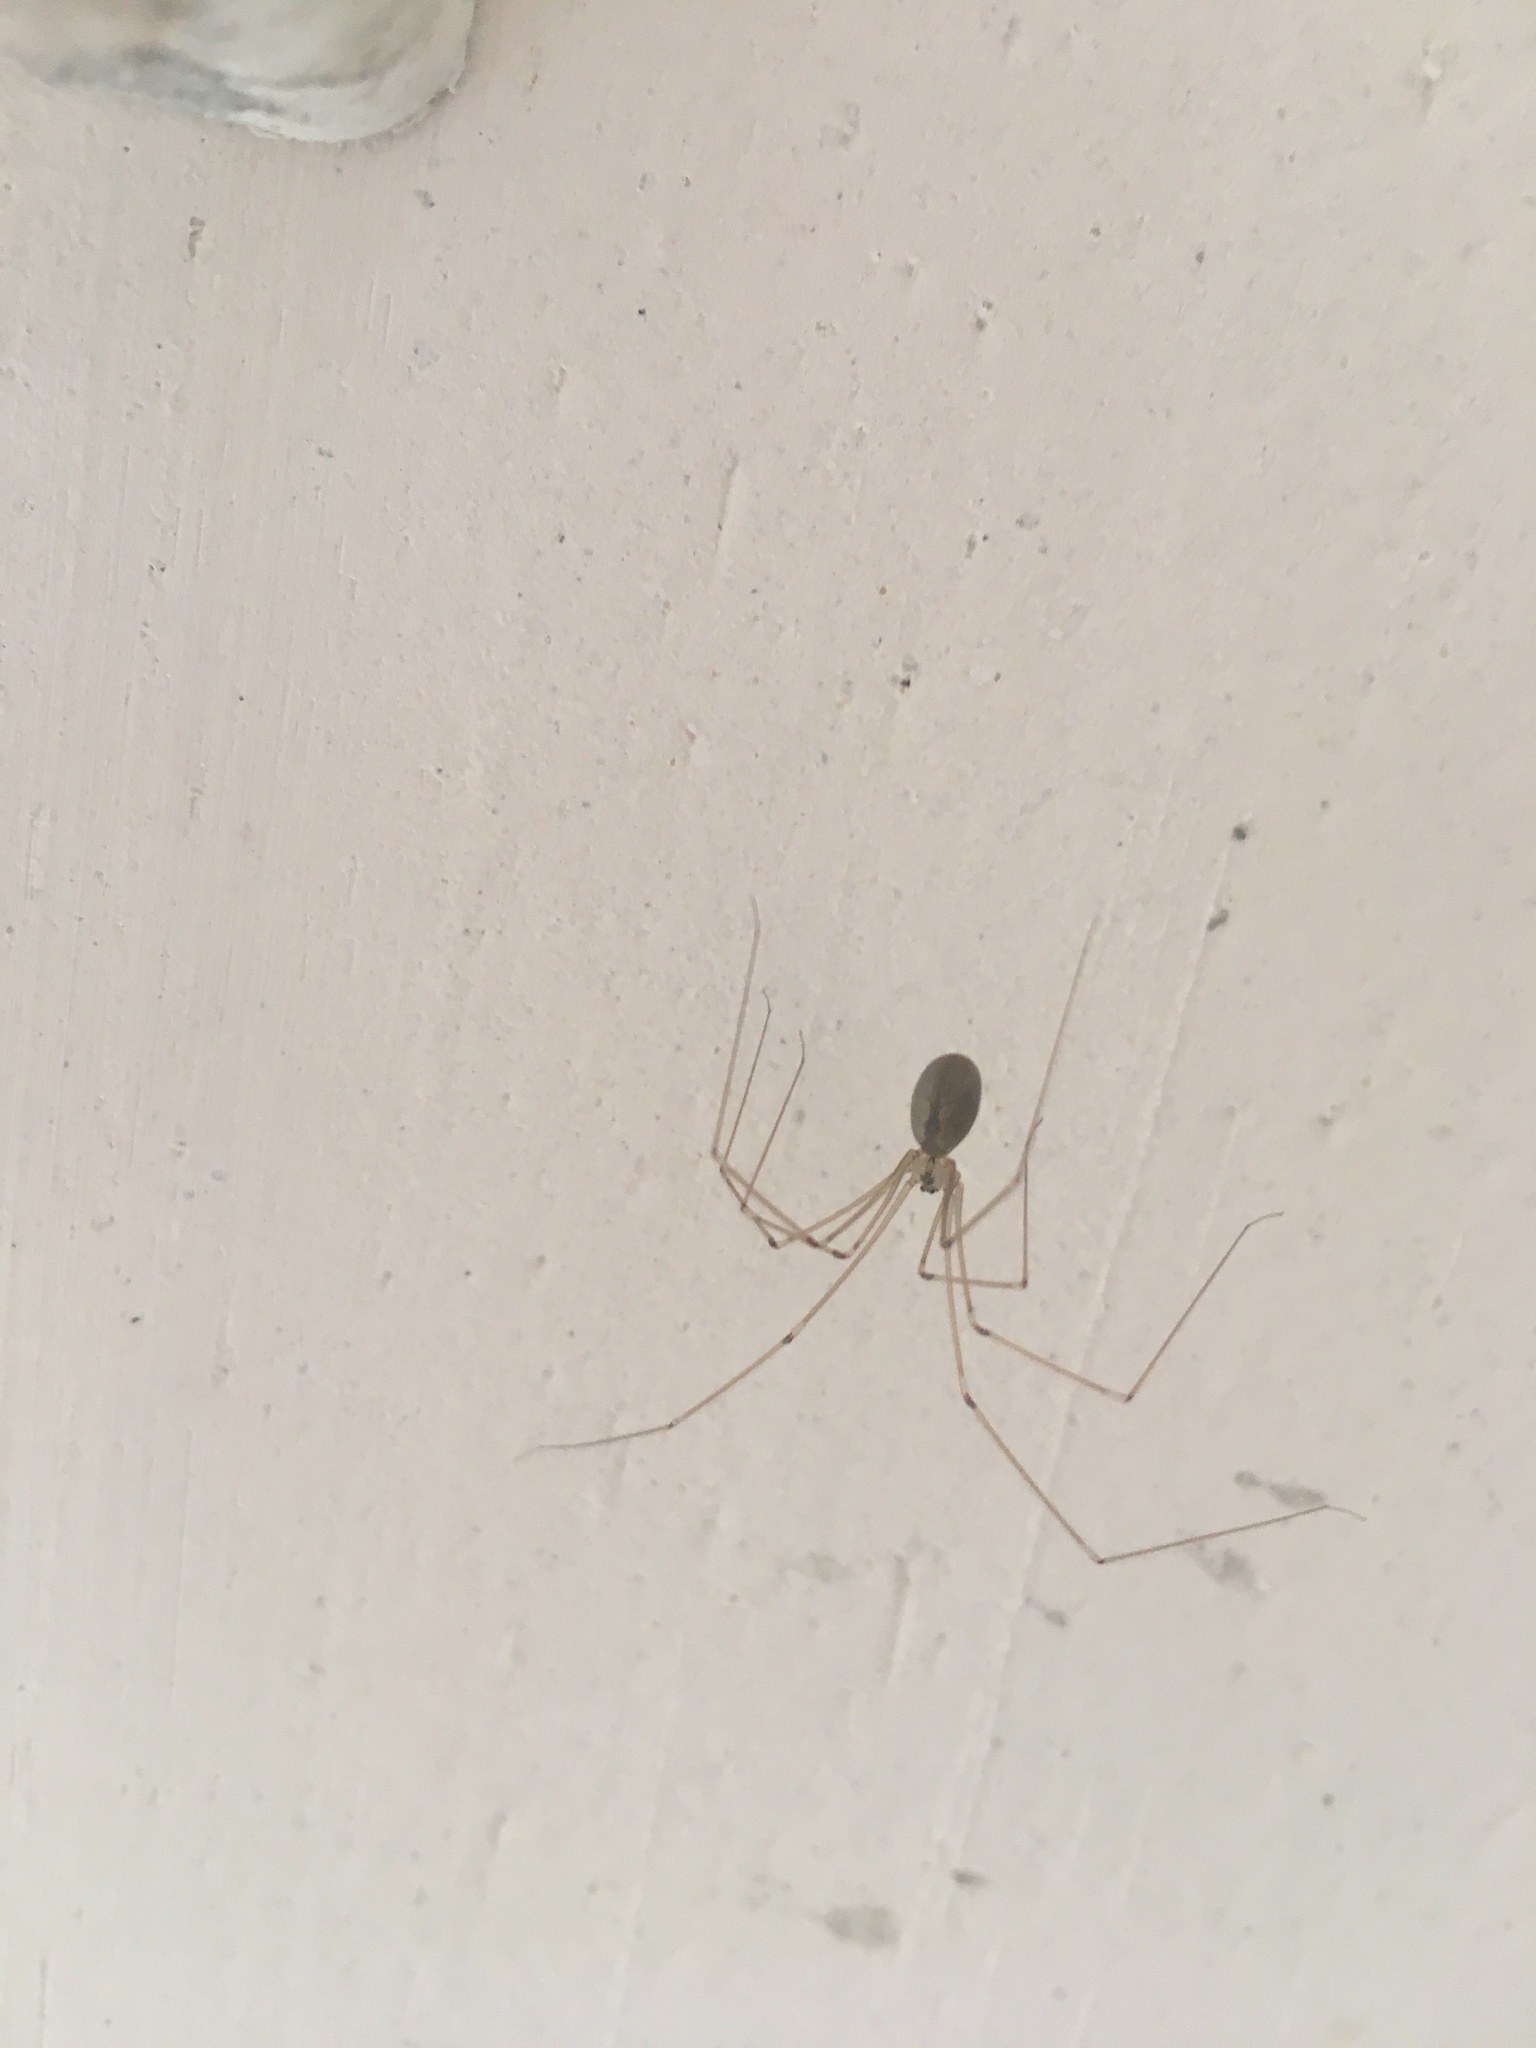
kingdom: Animalia
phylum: Arthropoda
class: Arachnida
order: Araneae
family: Pholcidae
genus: Pholcus
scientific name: Pholcus ponticus
